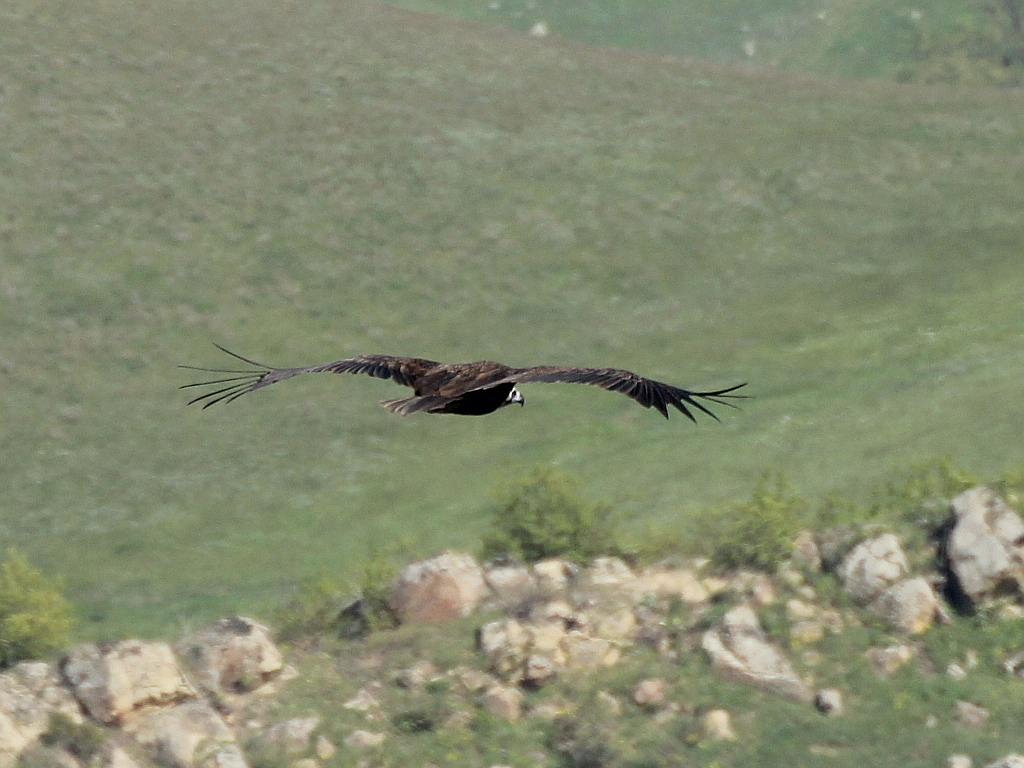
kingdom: Animalia
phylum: Chordata
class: Aves
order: Accipitriformes
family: Accipitridae
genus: Aegypius
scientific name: Aegypius monachus
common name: Cinereous vulture
